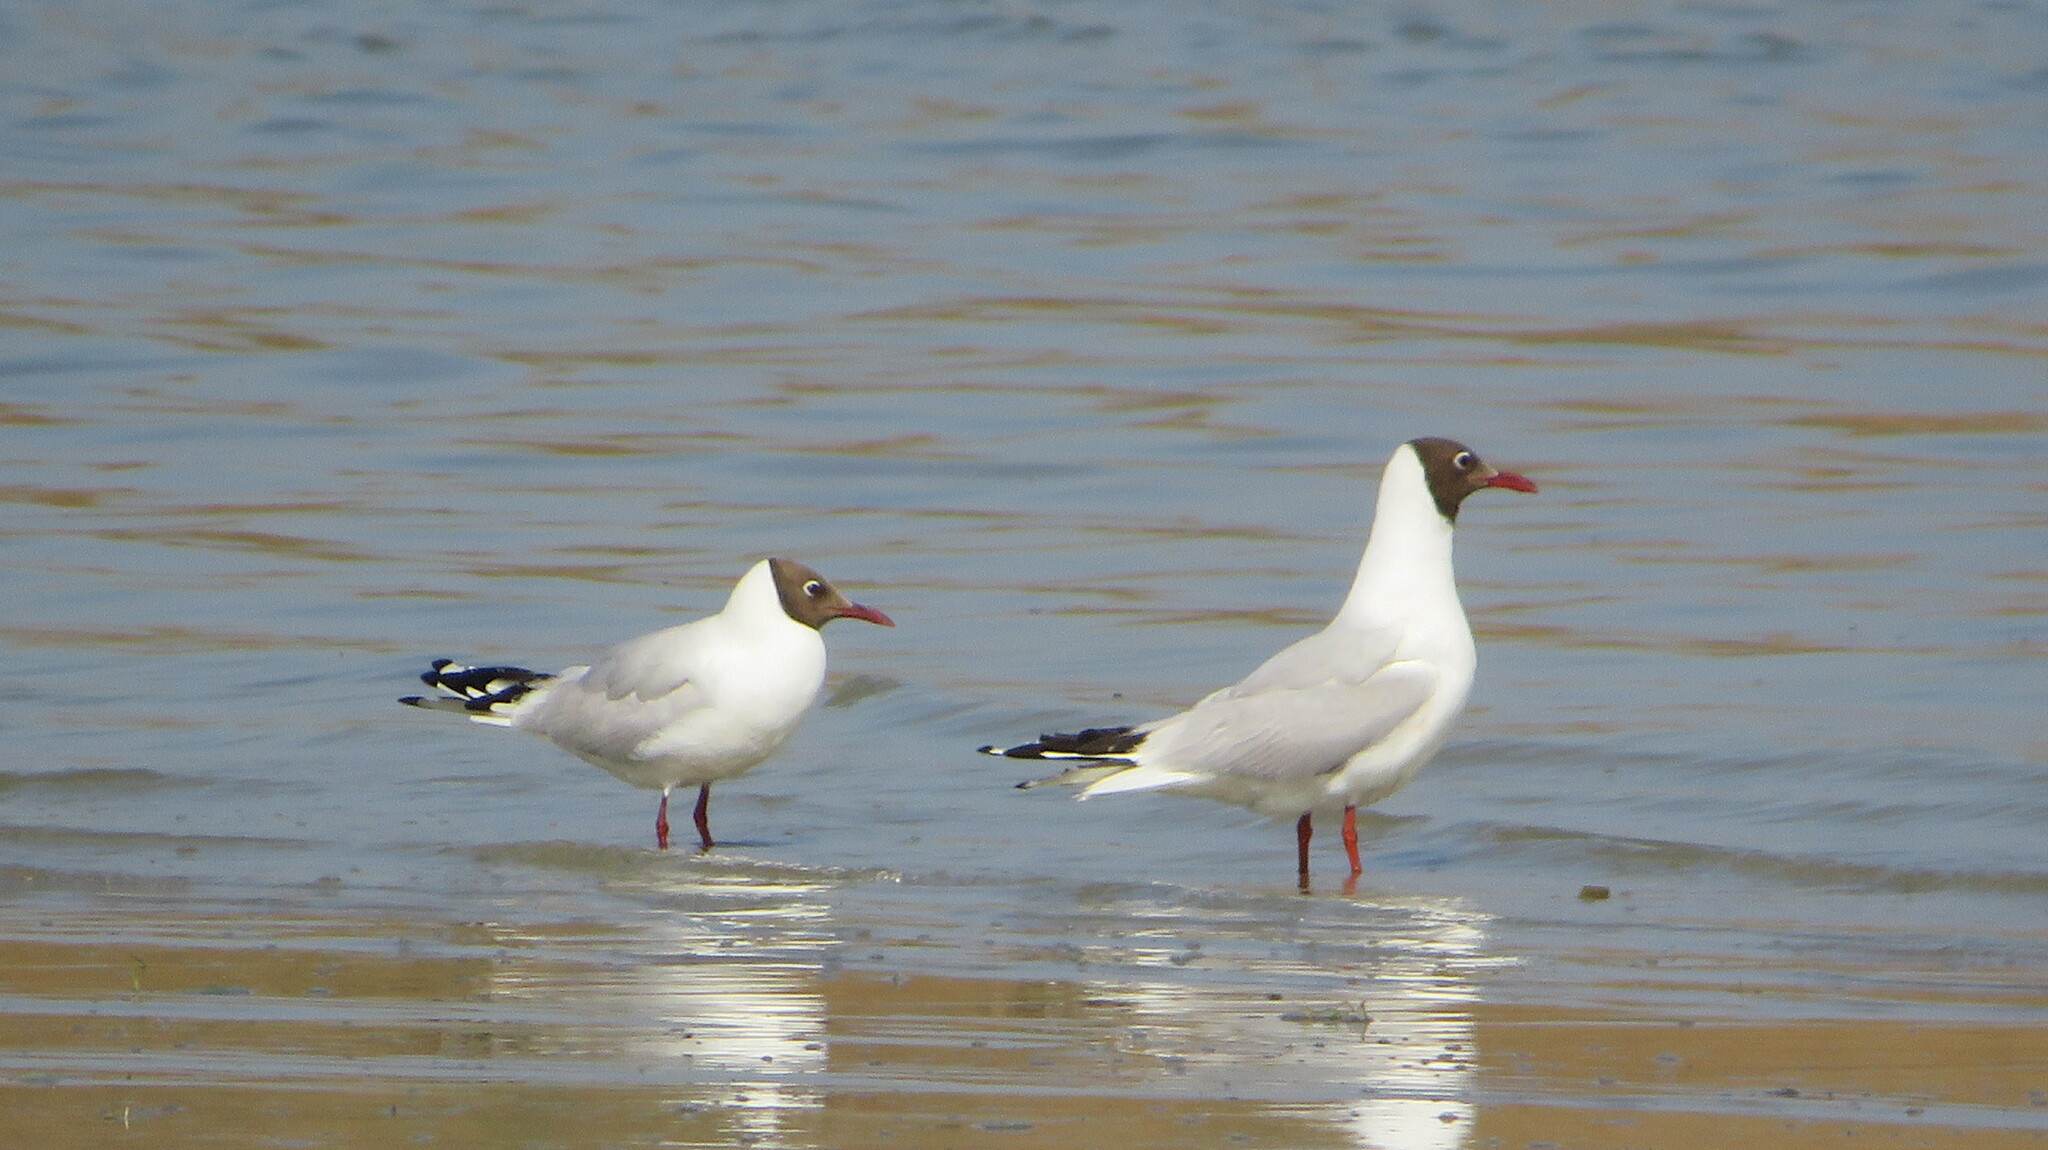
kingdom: Animalia
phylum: Chordata
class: Aves
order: Charadriiformes
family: Laridae
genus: Chroicocephalus
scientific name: Chroicocephalus ridibundus
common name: Black-headed gull
